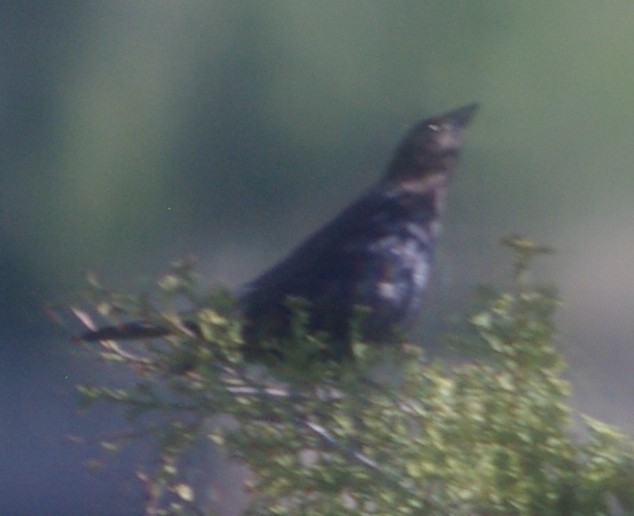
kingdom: Animalia
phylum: Chordata
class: Aves
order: Passeriformes
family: Icteridae
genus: Molothrus
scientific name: Molothrus ater
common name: Brown-headed cowbird
